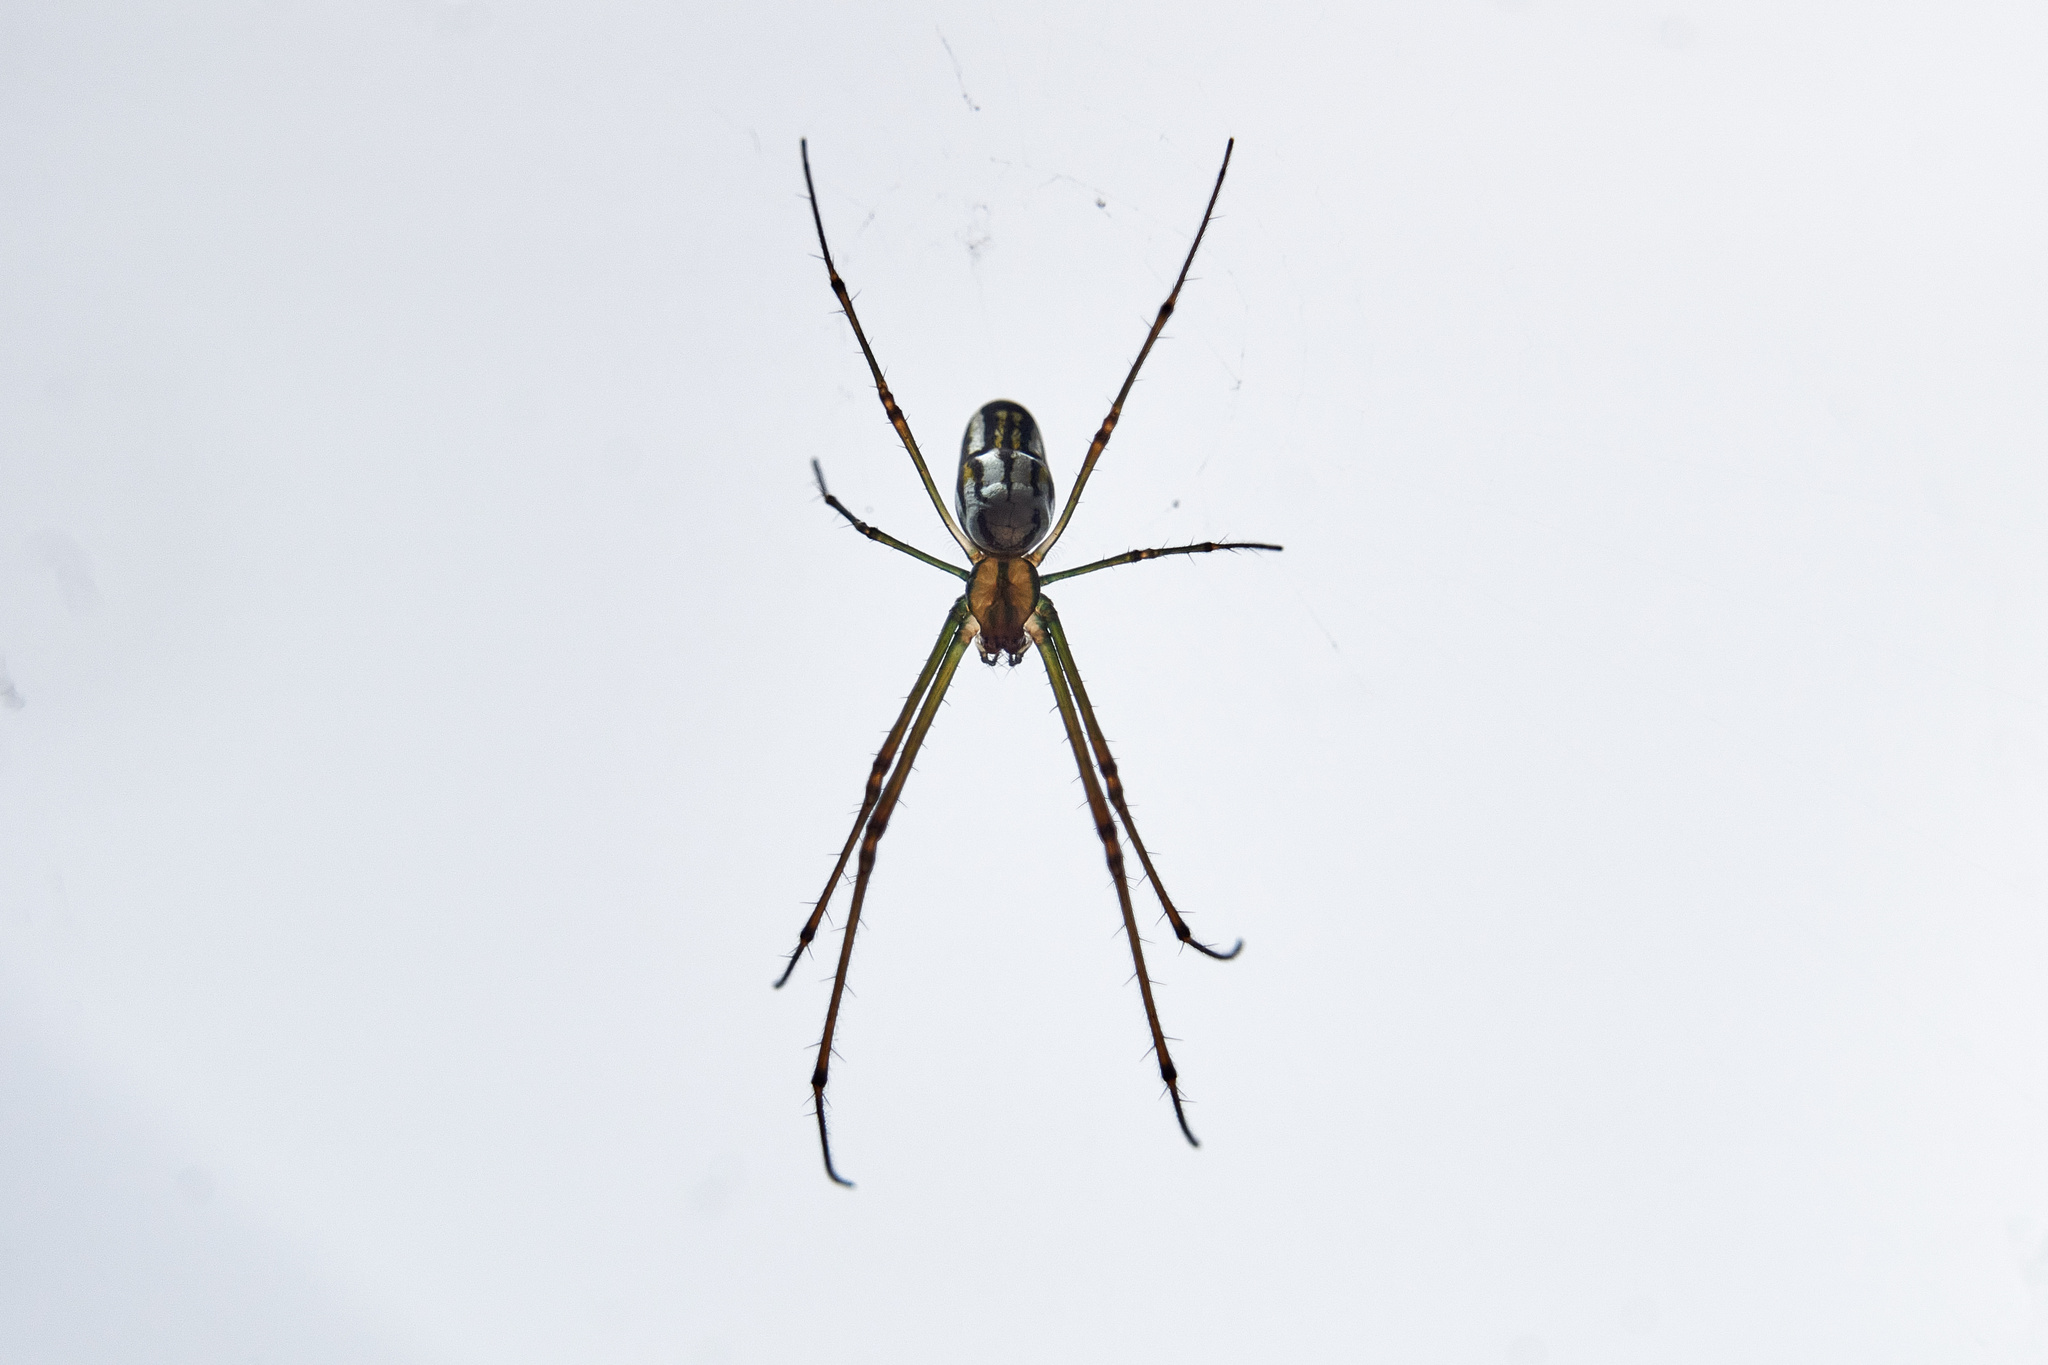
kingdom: Animalia
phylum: Arthropoda
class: Arachnida
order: Araneae
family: Tetragnathidae
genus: Leucauge
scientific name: Leucauge argyra
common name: Longjawed orb weavers
